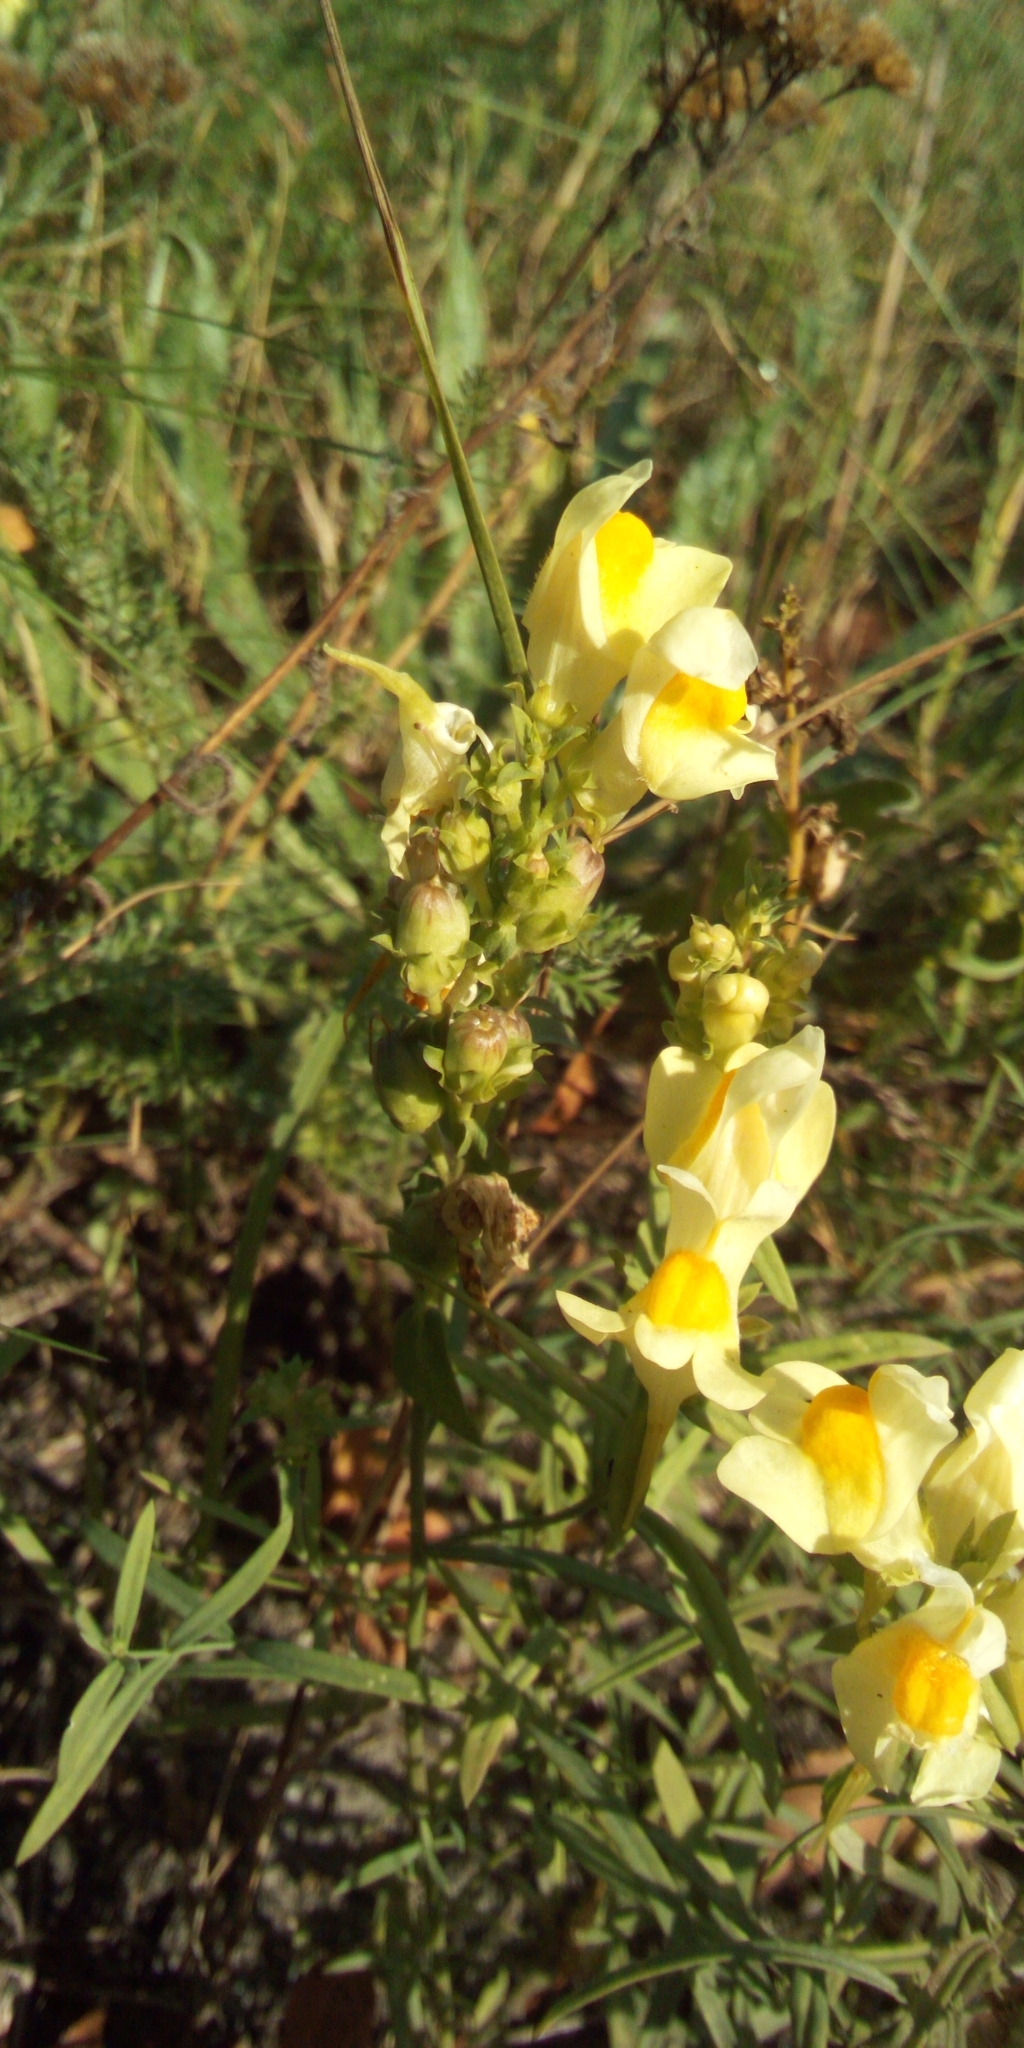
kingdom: Plantae
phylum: Tracheophyta
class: Magnoliopsida
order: Lamiales
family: Plantaginaceae
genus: Linaria
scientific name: Linaria vulgaris
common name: Butter and eggs
